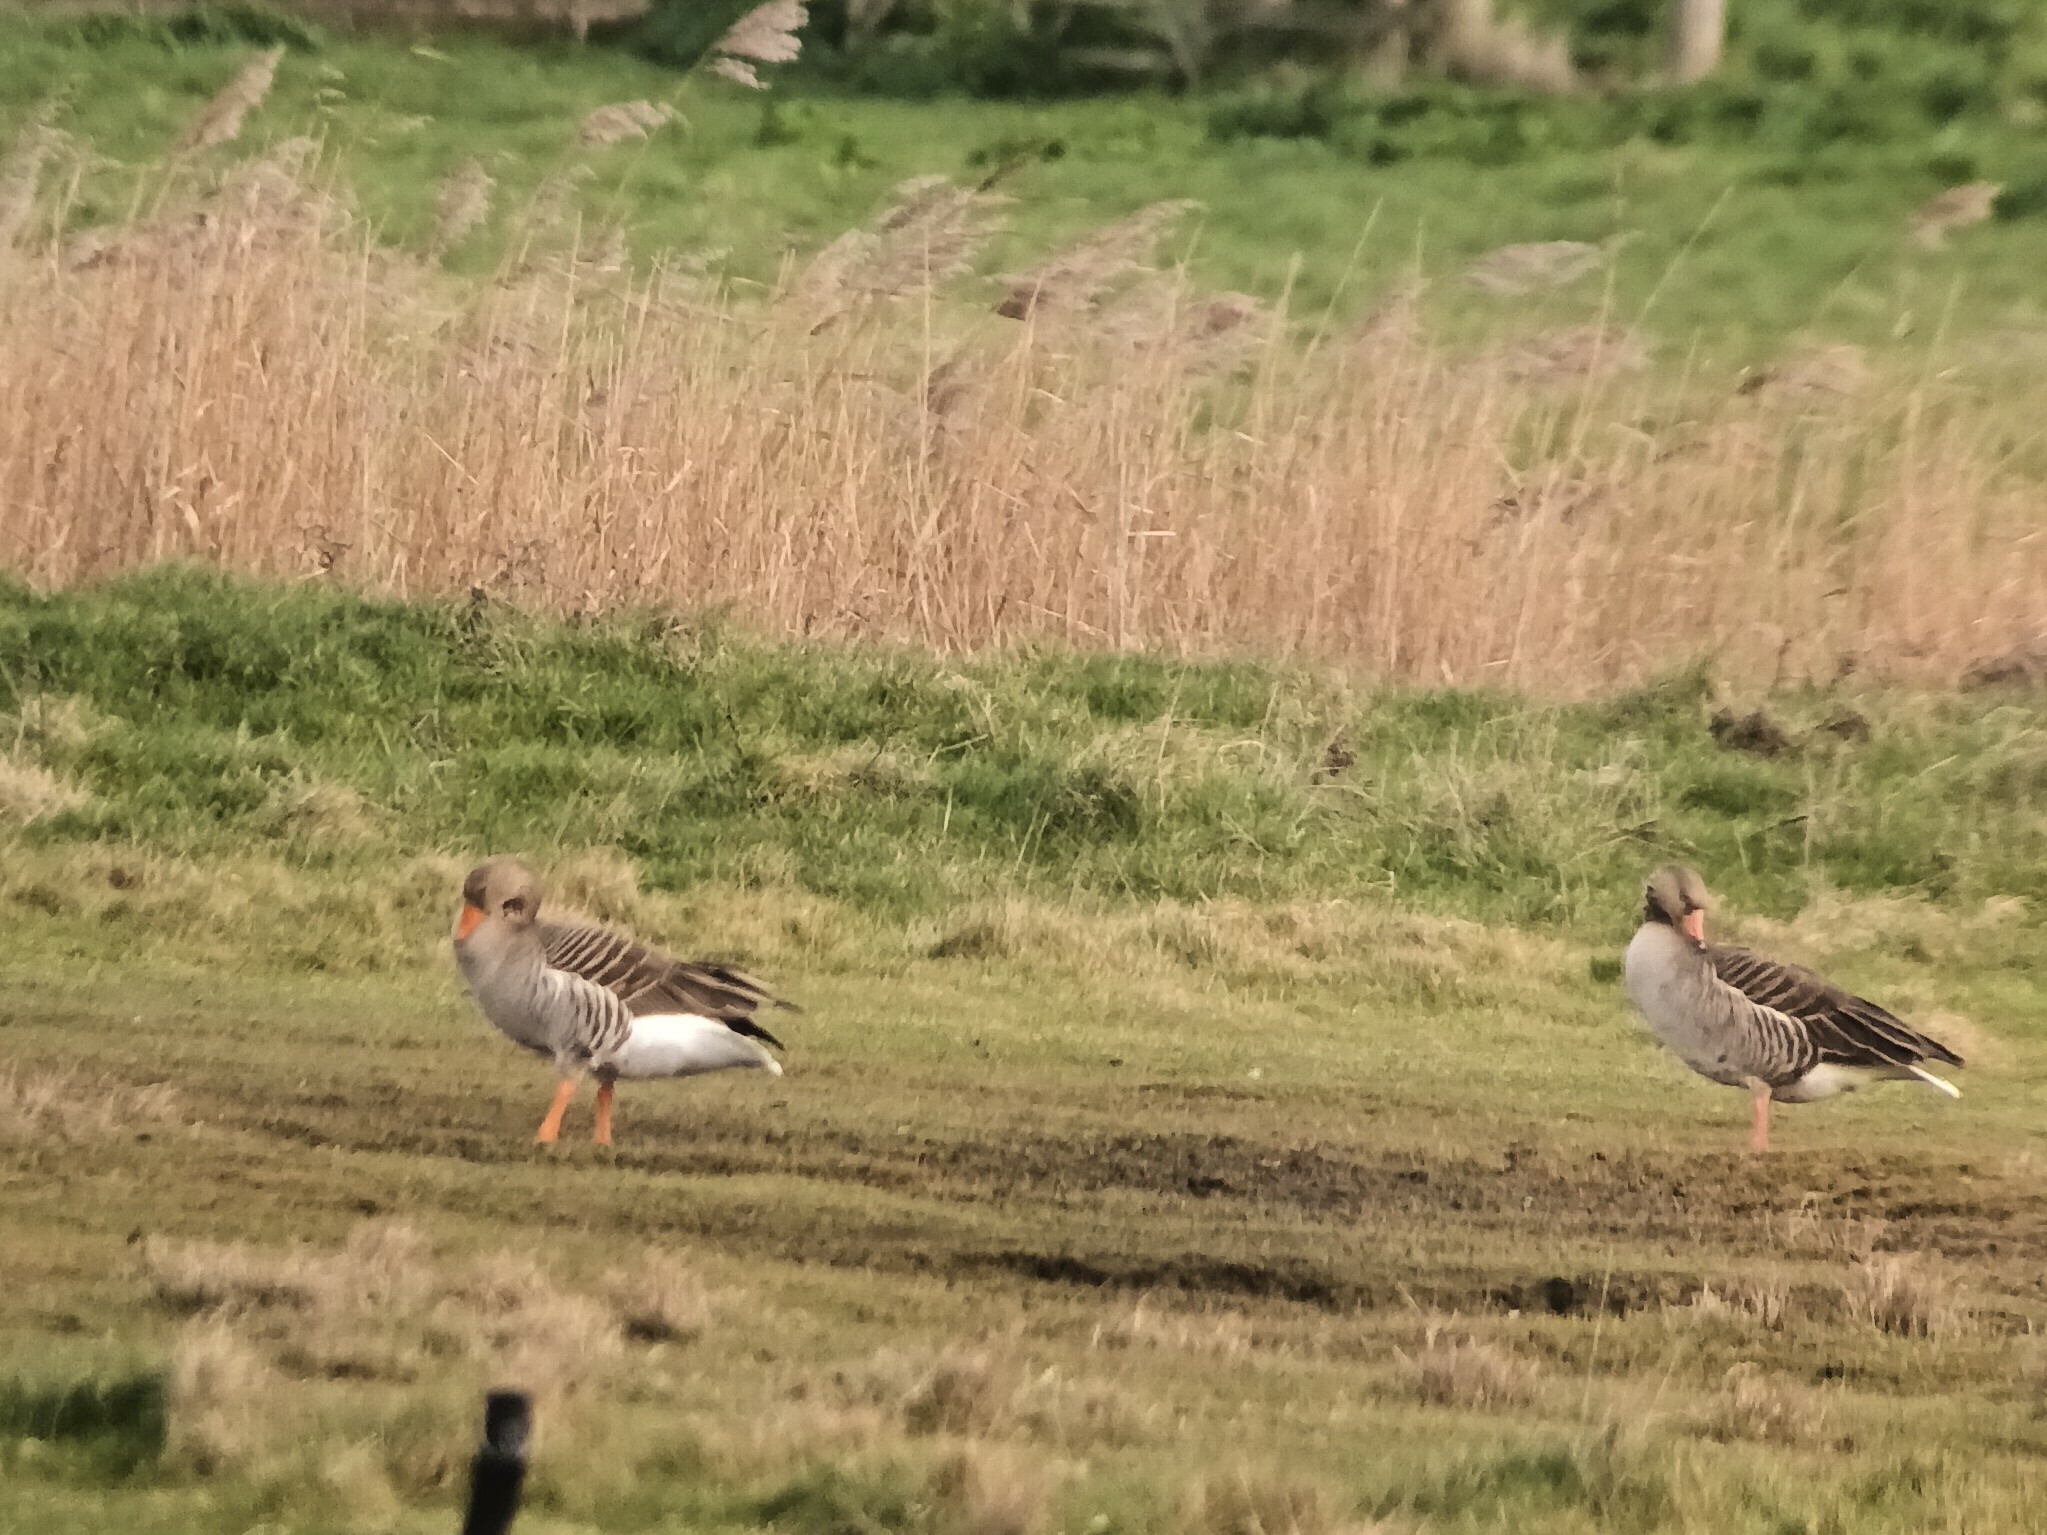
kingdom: Animalia
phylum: Chordata
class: Aves
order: Anseriformes
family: Anatidae
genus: Anser
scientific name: Anser anser
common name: Greylag goose
